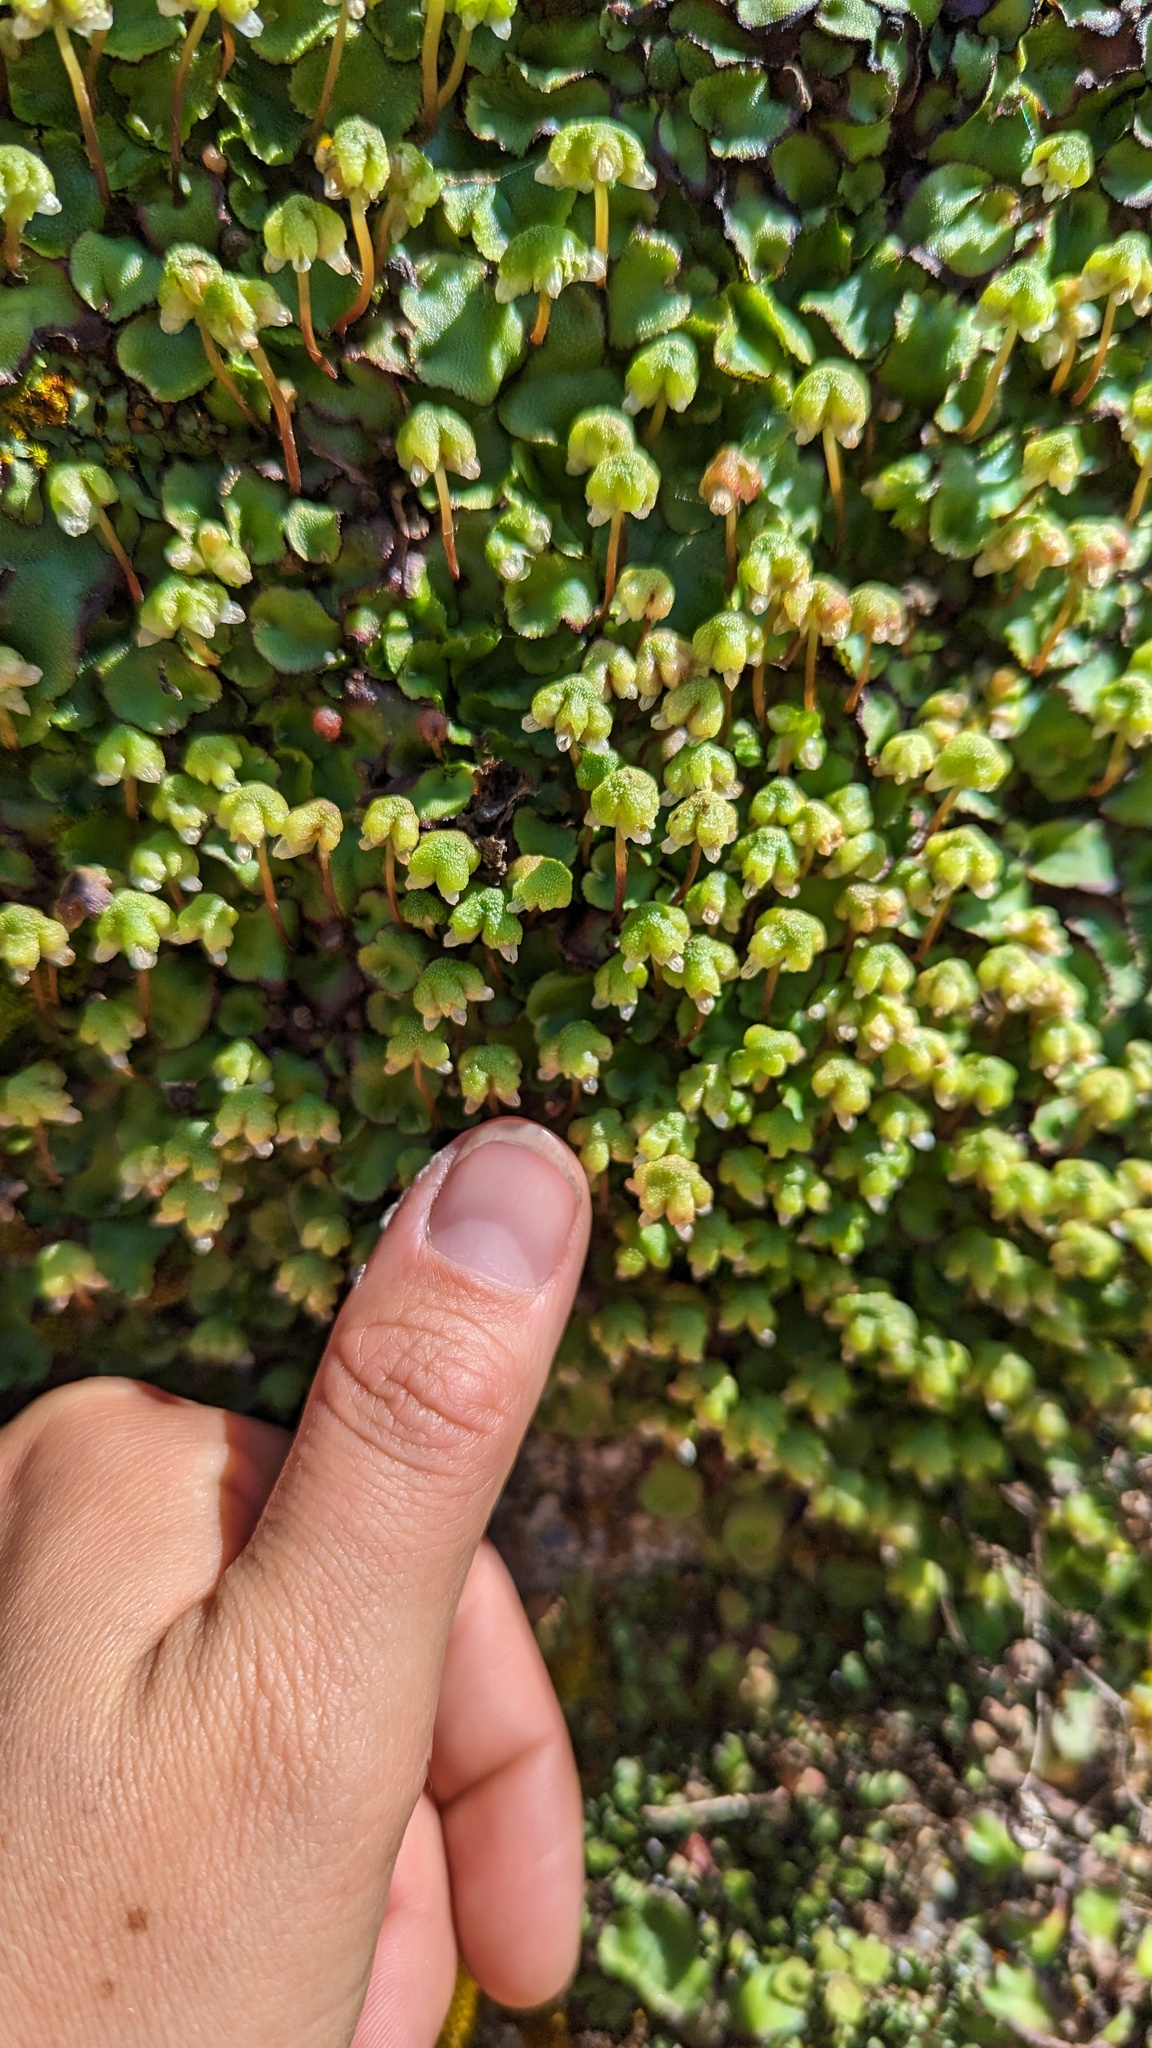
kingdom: Plantae
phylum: Marchantiophyta
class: Marchantiopsida
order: Marchantiales
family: Aytoniaceae
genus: Asterella
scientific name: Asterella californica
